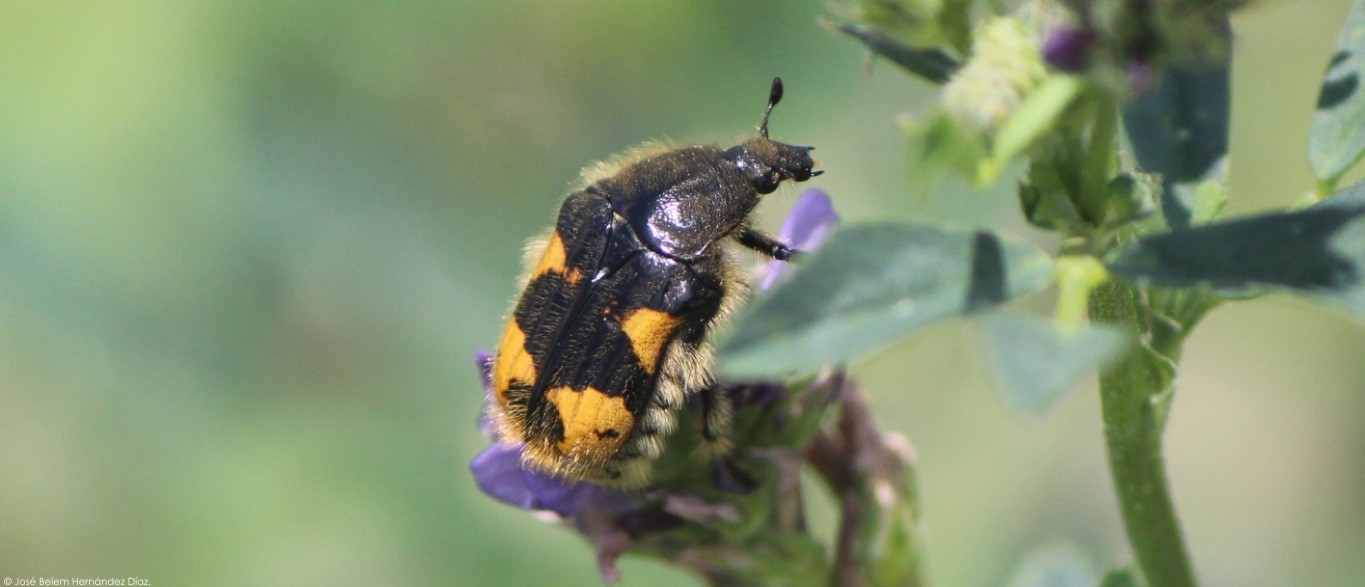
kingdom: Animalia
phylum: Arthropoda
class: Insecta
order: Coleoptera
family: Scarabaeidae
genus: Euphoria
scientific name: Euphoria basalis
